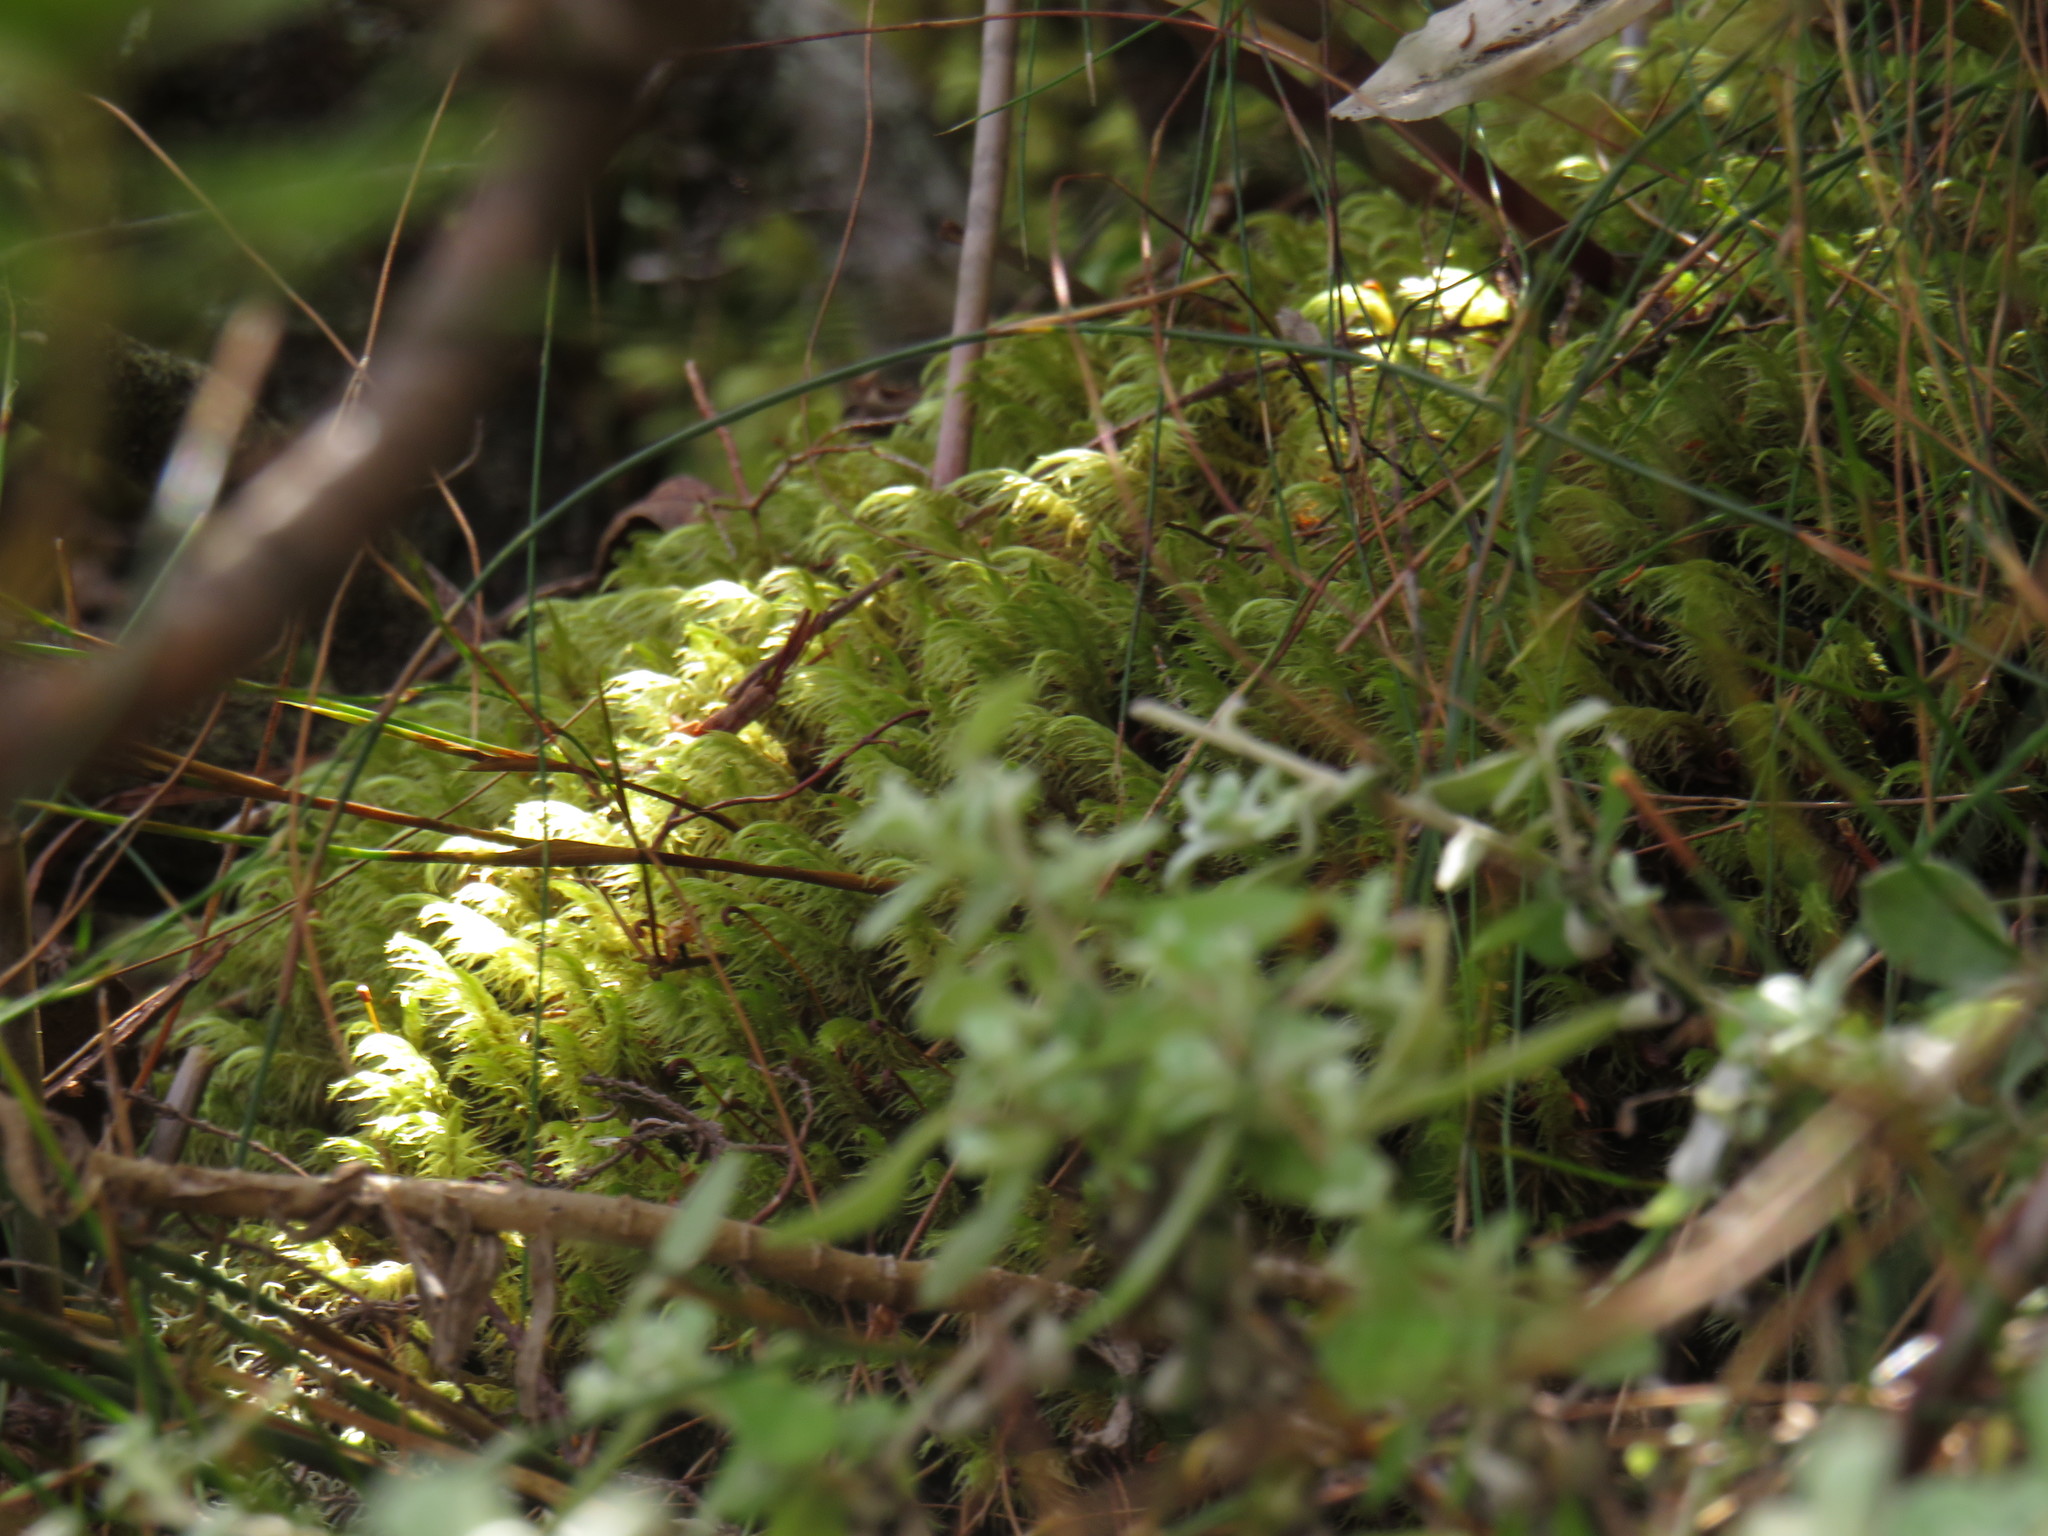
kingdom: Plantae
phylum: Bryophyta
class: Bryopsida
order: Dicranales
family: Dicranaceae
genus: Dicranoloma
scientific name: Dicranoloma billardieri
